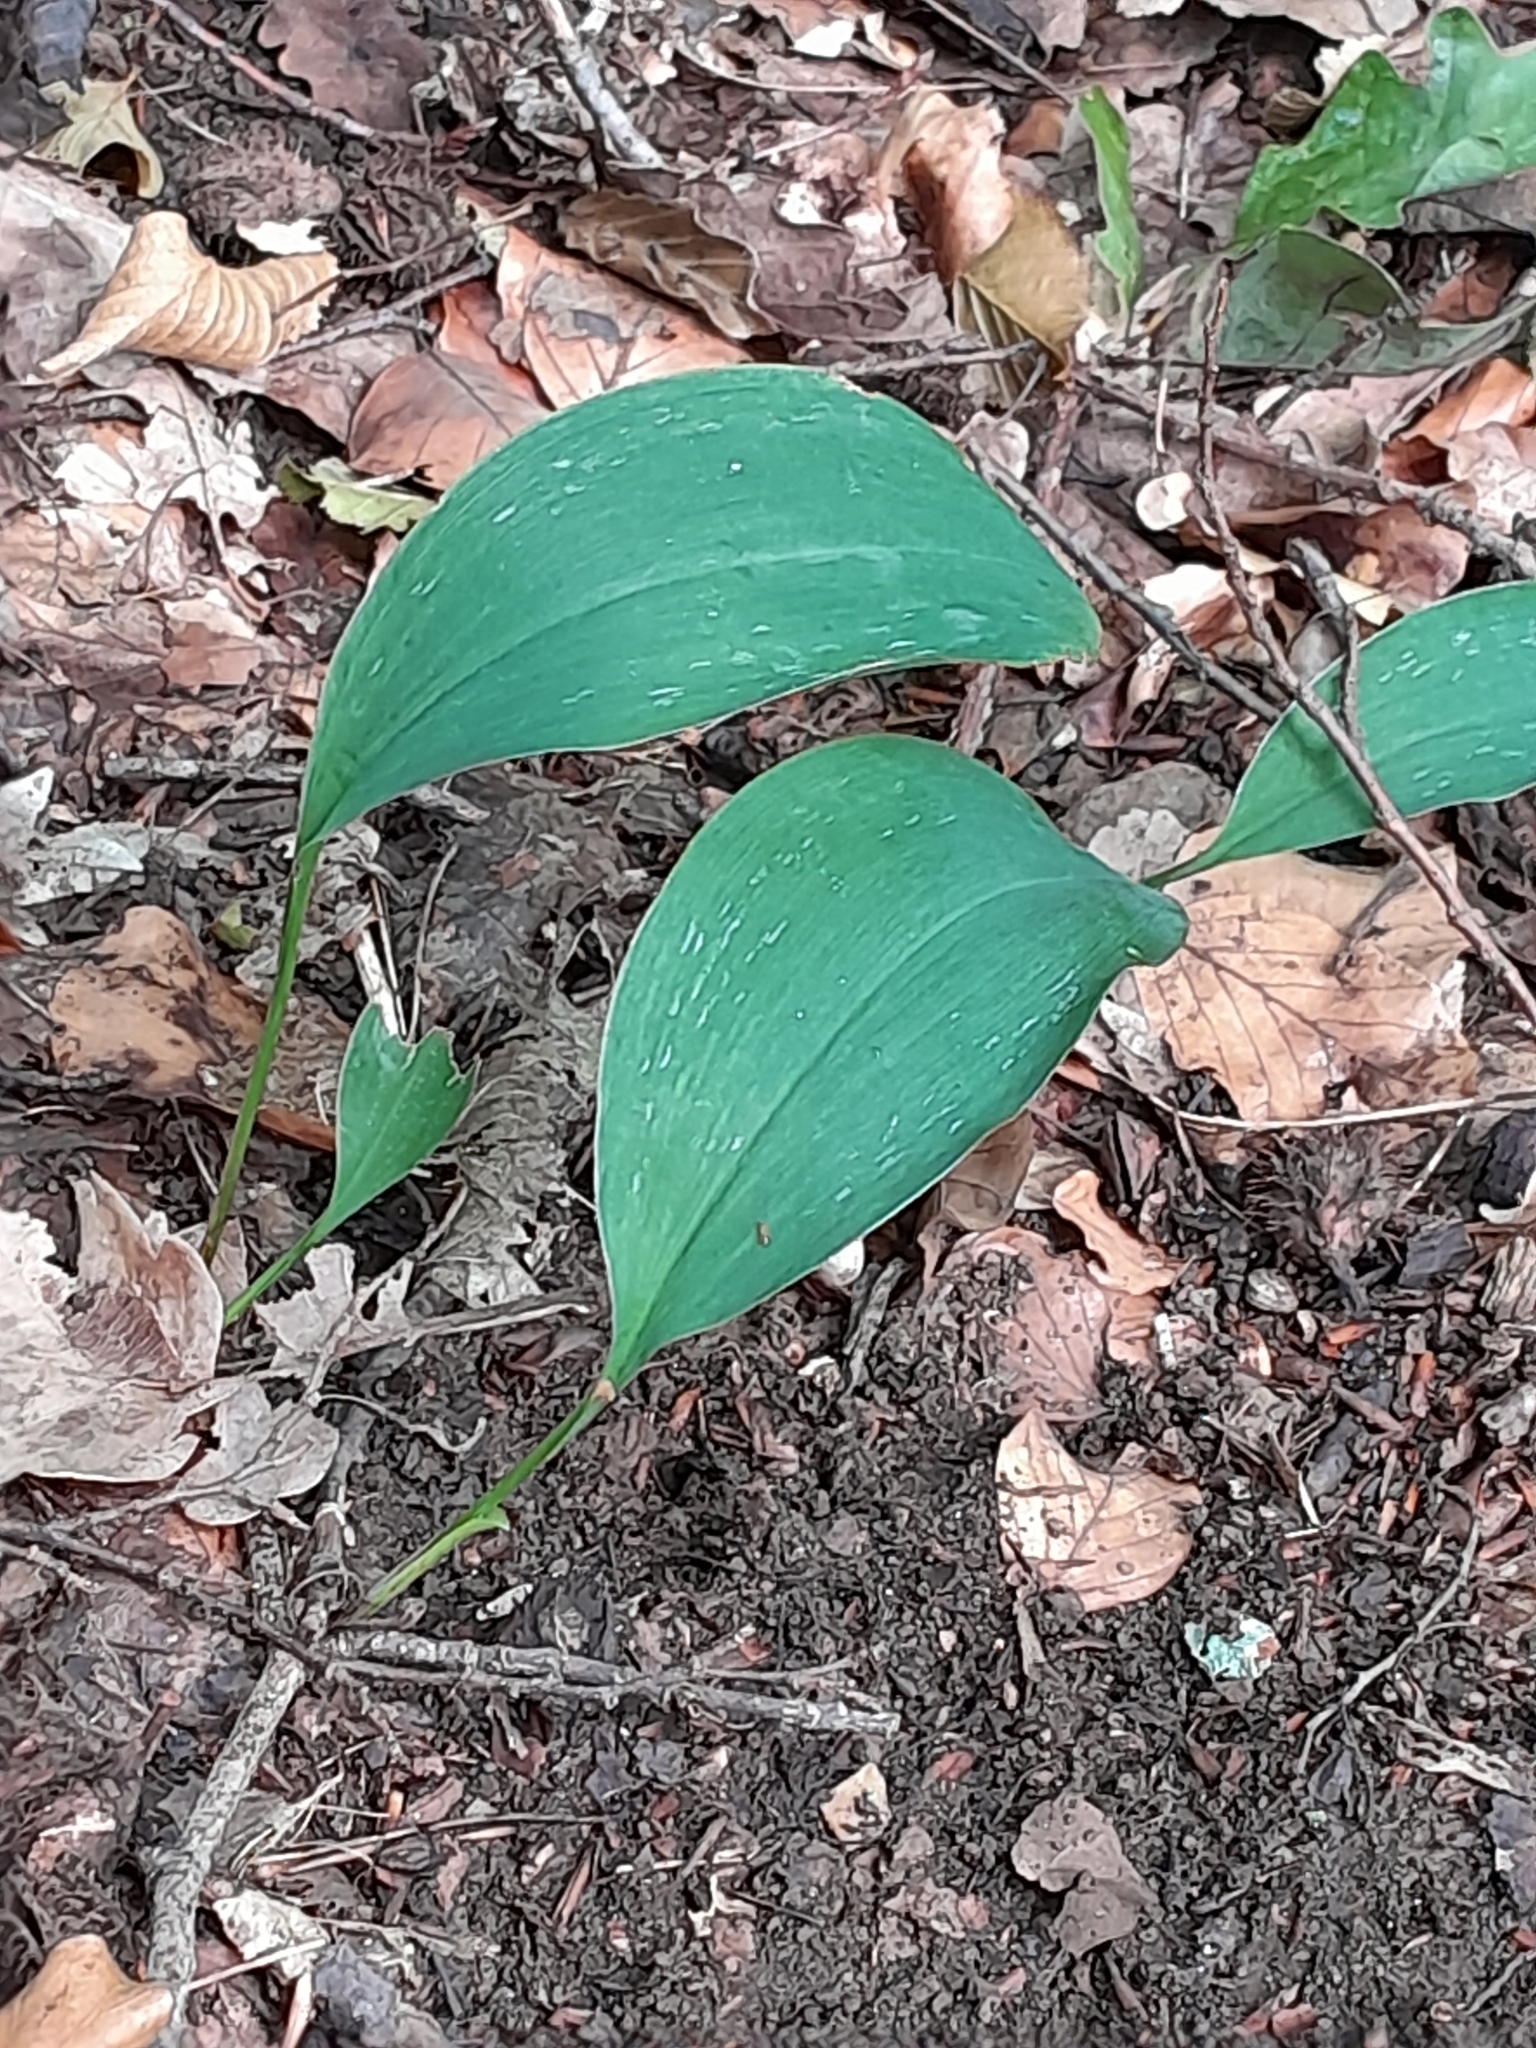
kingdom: Plantae
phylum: Tracheophyta
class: Liliopsida
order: Asparagales
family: Asparagaceae
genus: Convallaria
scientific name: Convallaria majalis
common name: Lily-of-the-valley
